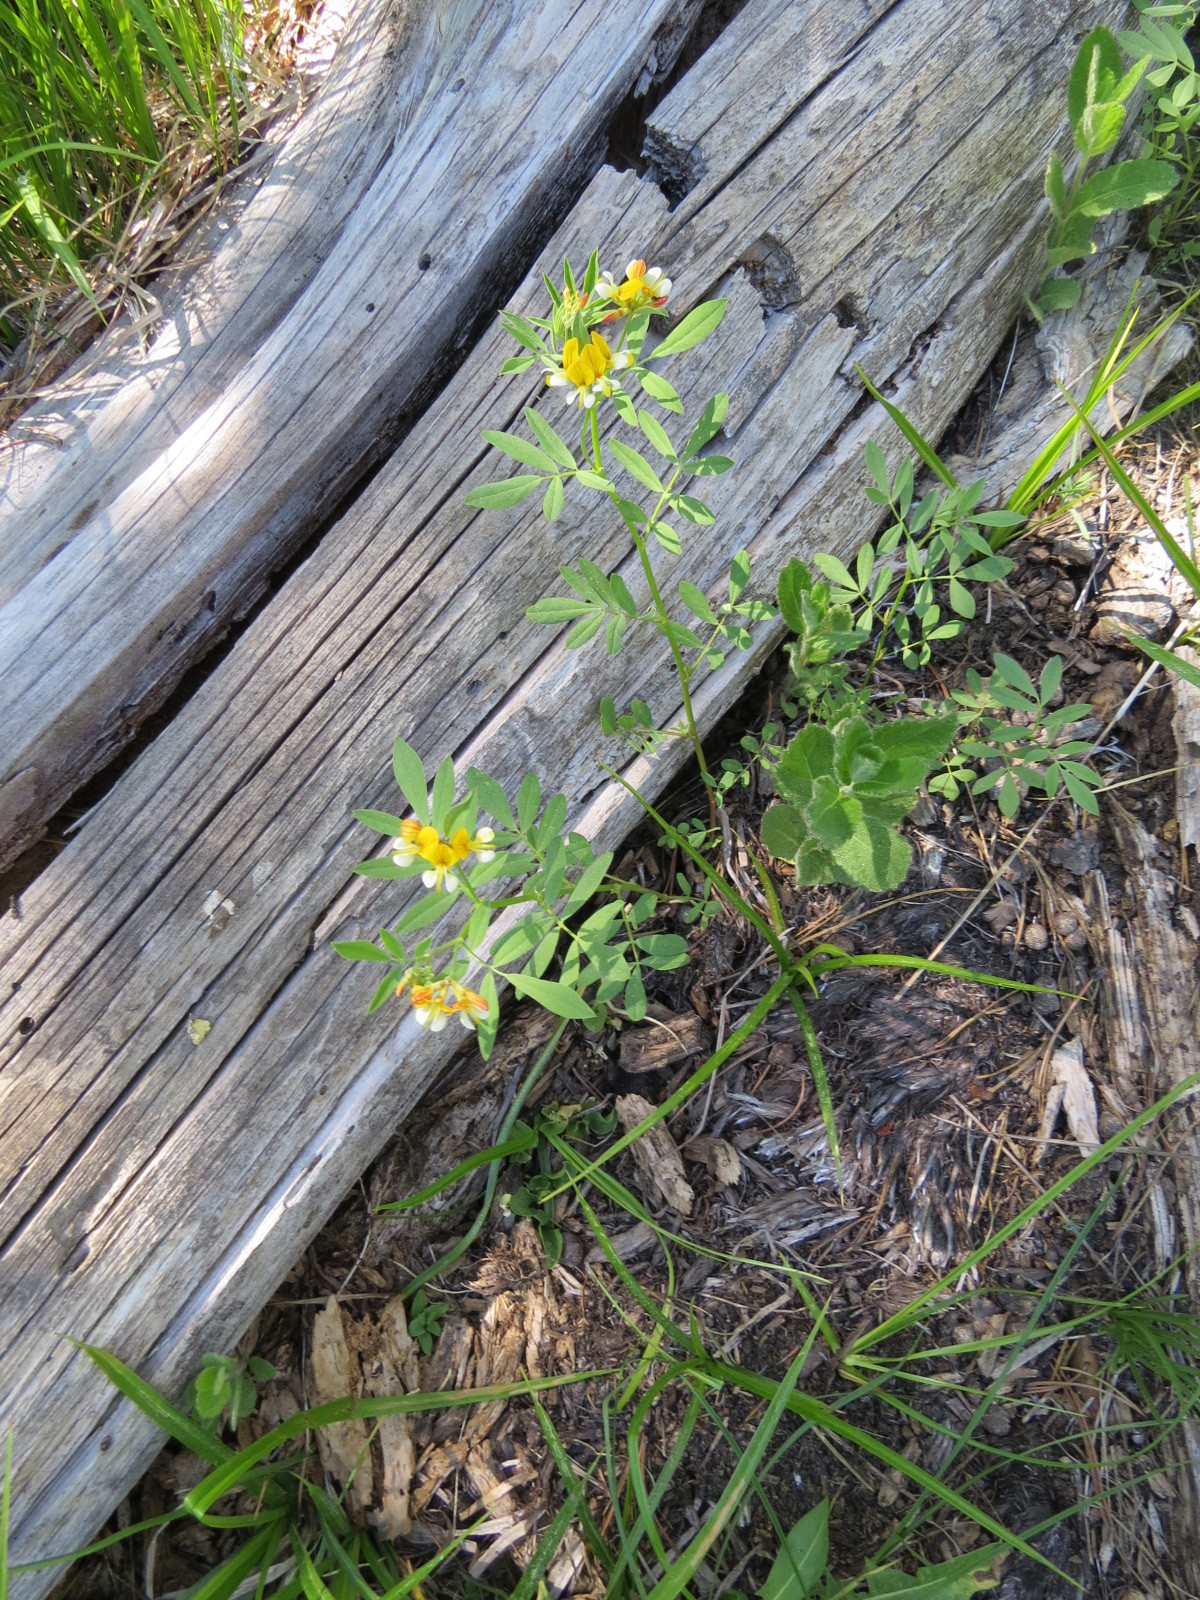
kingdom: Plantae
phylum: Tracheophyta
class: Magnoliopsida
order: Fabales
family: Fabaceae
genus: Hosackia
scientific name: Hosackia oblongifolia
